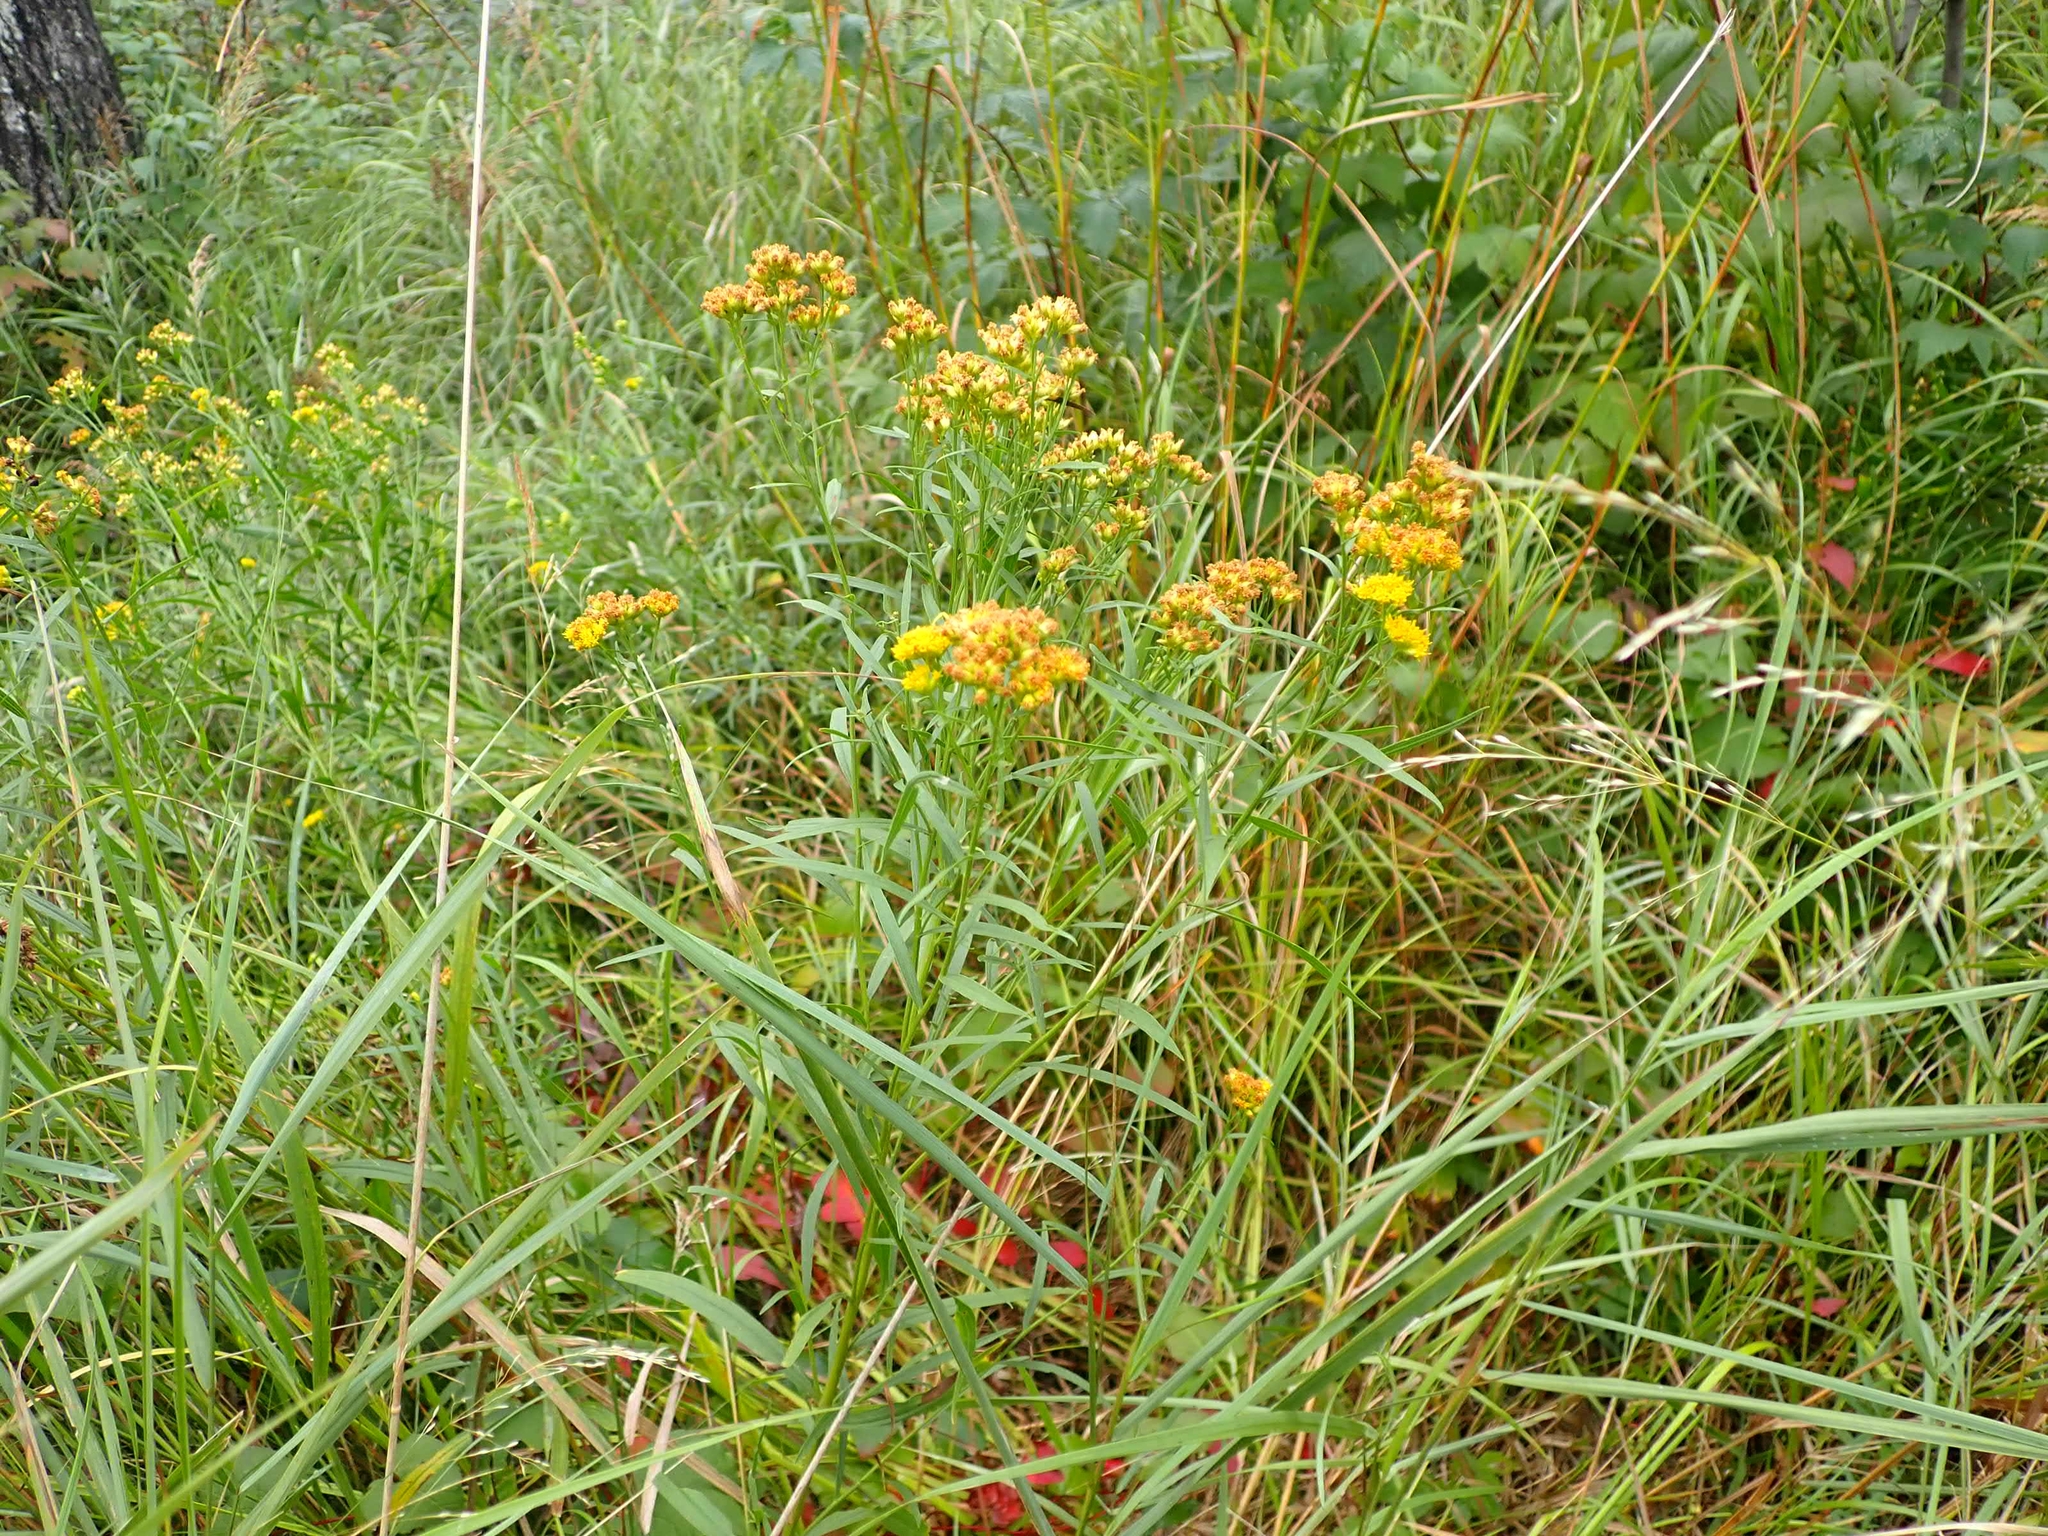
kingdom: Plantae
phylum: Tracheophyta
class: Magnoliopsida
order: Asterales
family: Asteraceae
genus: Euthamia
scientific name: Euthamia graminifolia
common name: Common goldentop
